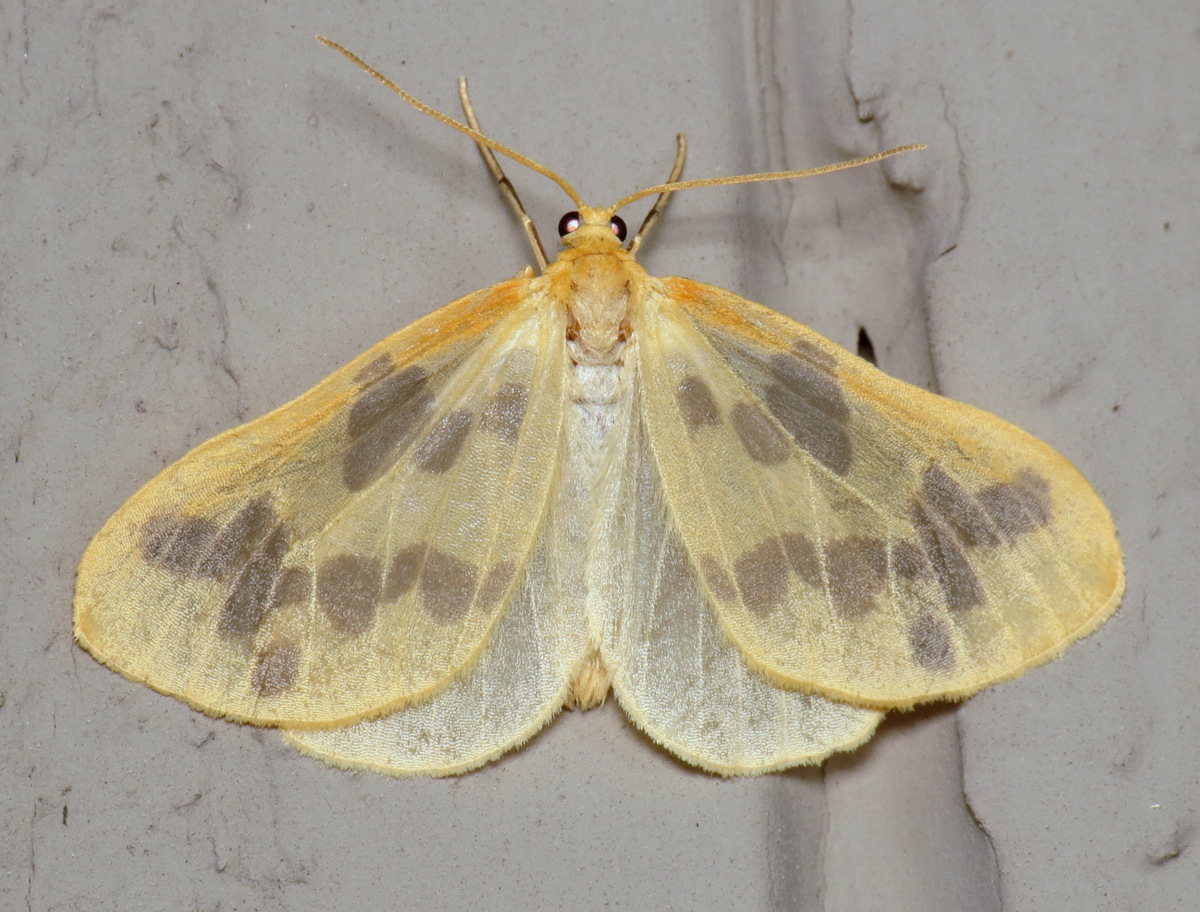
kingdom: Animalia
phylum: Arthropoda
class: Insecta
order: Lepidoptera
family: Geometridae
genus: Eubaphe
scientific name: Eubaphe mendica
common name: Beggar
